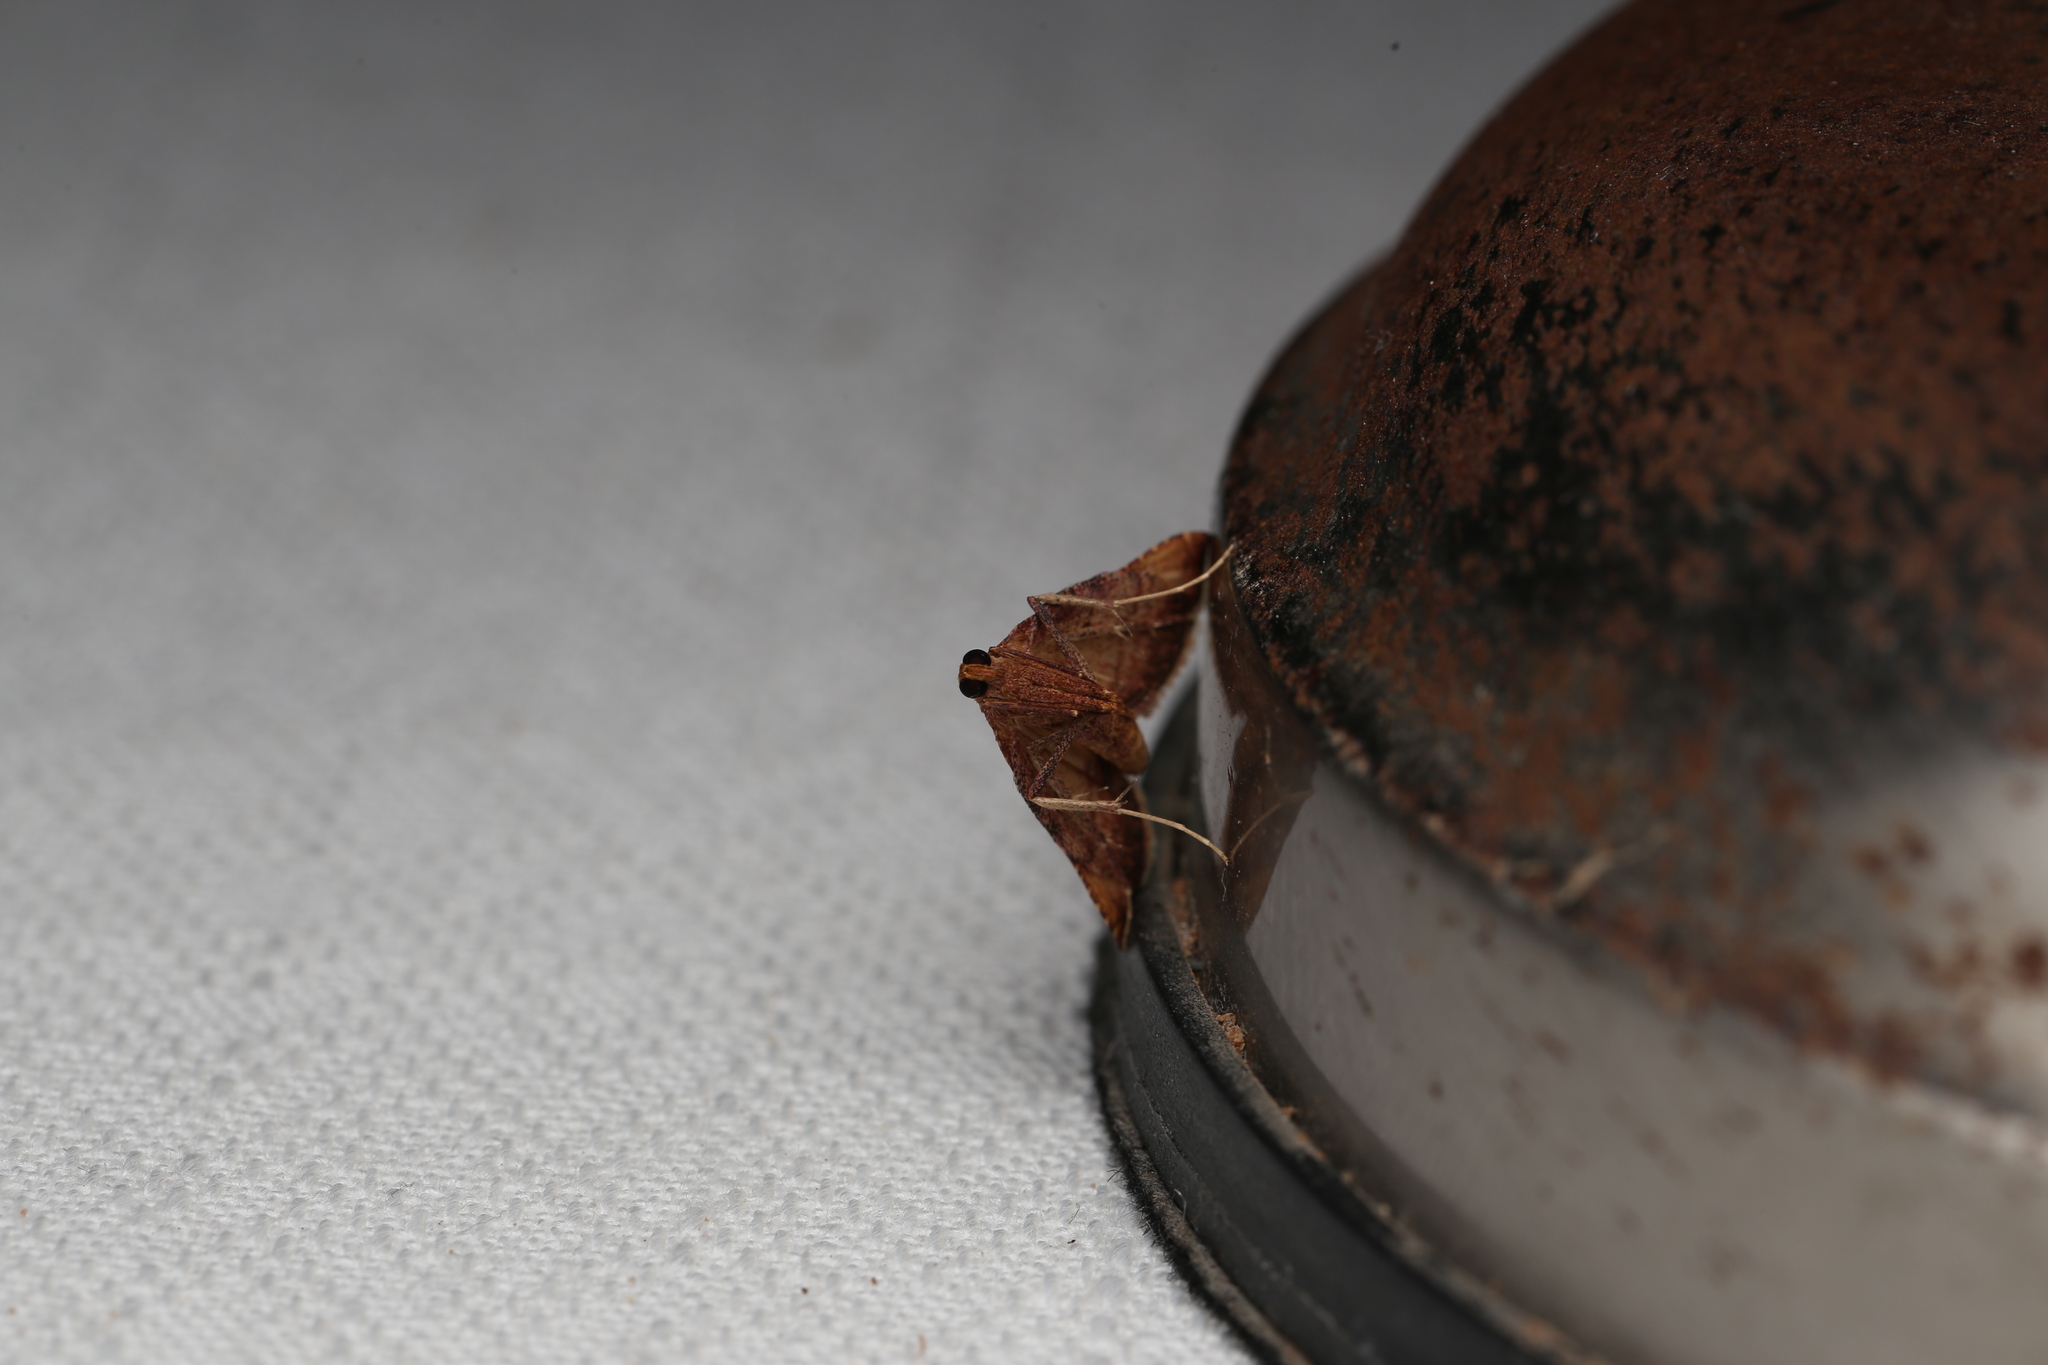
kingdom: Animalia
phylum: Arthropoda
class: Insecta
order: Lepidoptera
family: Pyralidae
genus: Endotricha
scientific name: Endotricha pyrosalis
